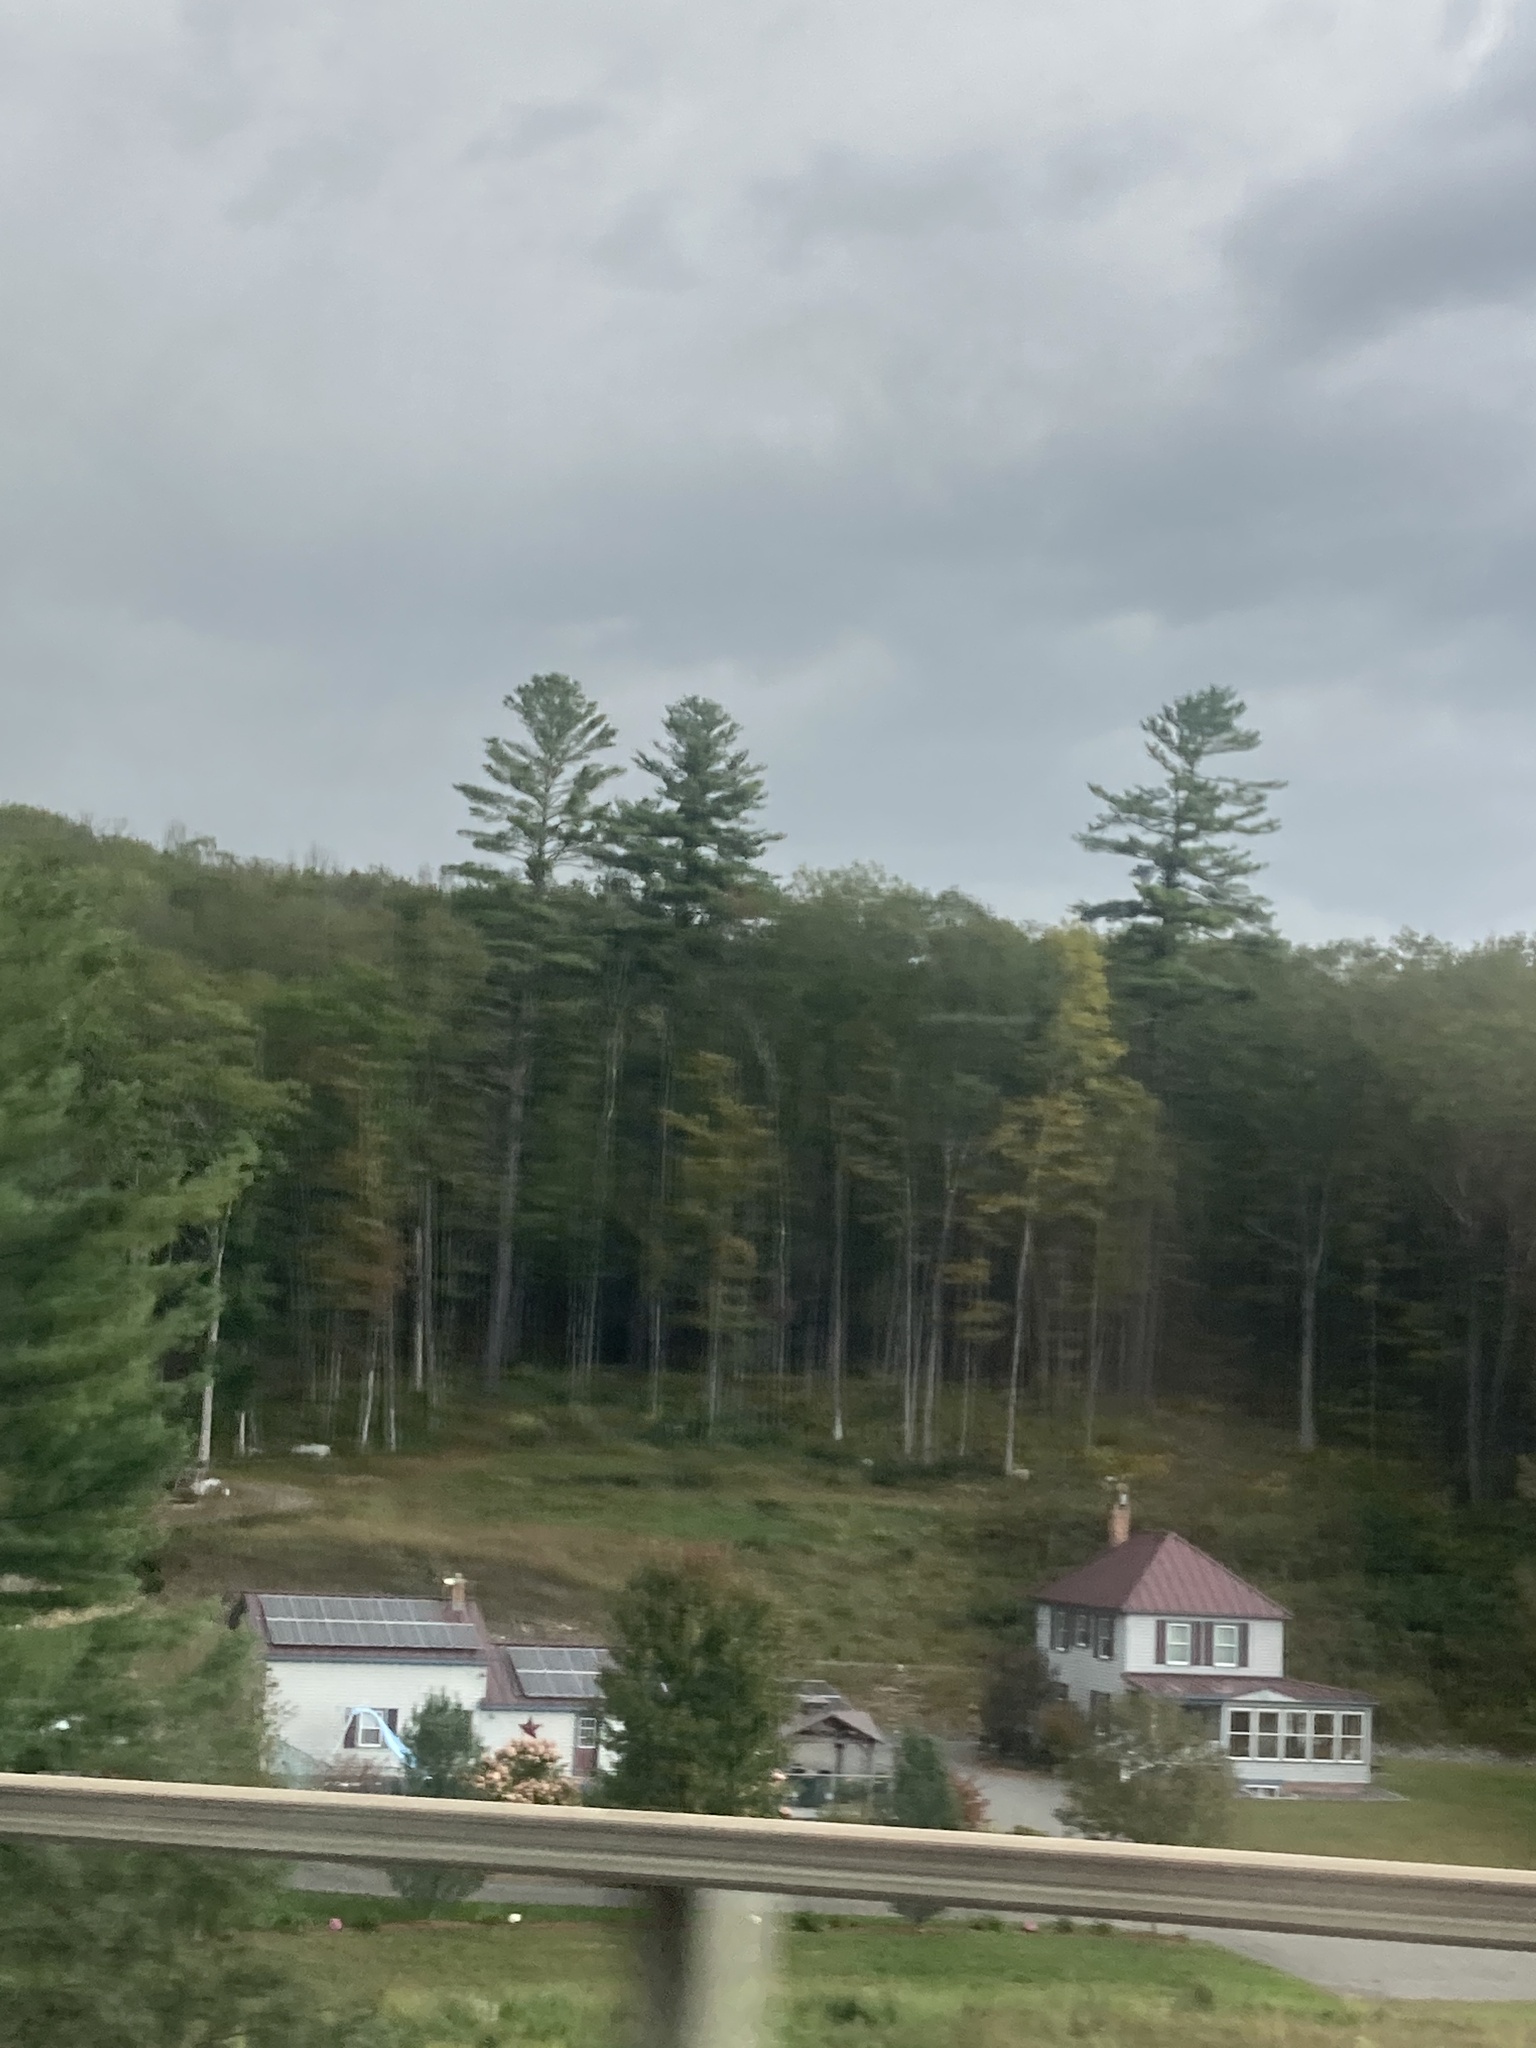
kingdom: Plantae
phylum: Tracheophyta
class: Pinopsida
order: Pinales
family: Pinaceae
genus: Pinus
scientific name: Pinus strobus
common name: Weymouth pine
